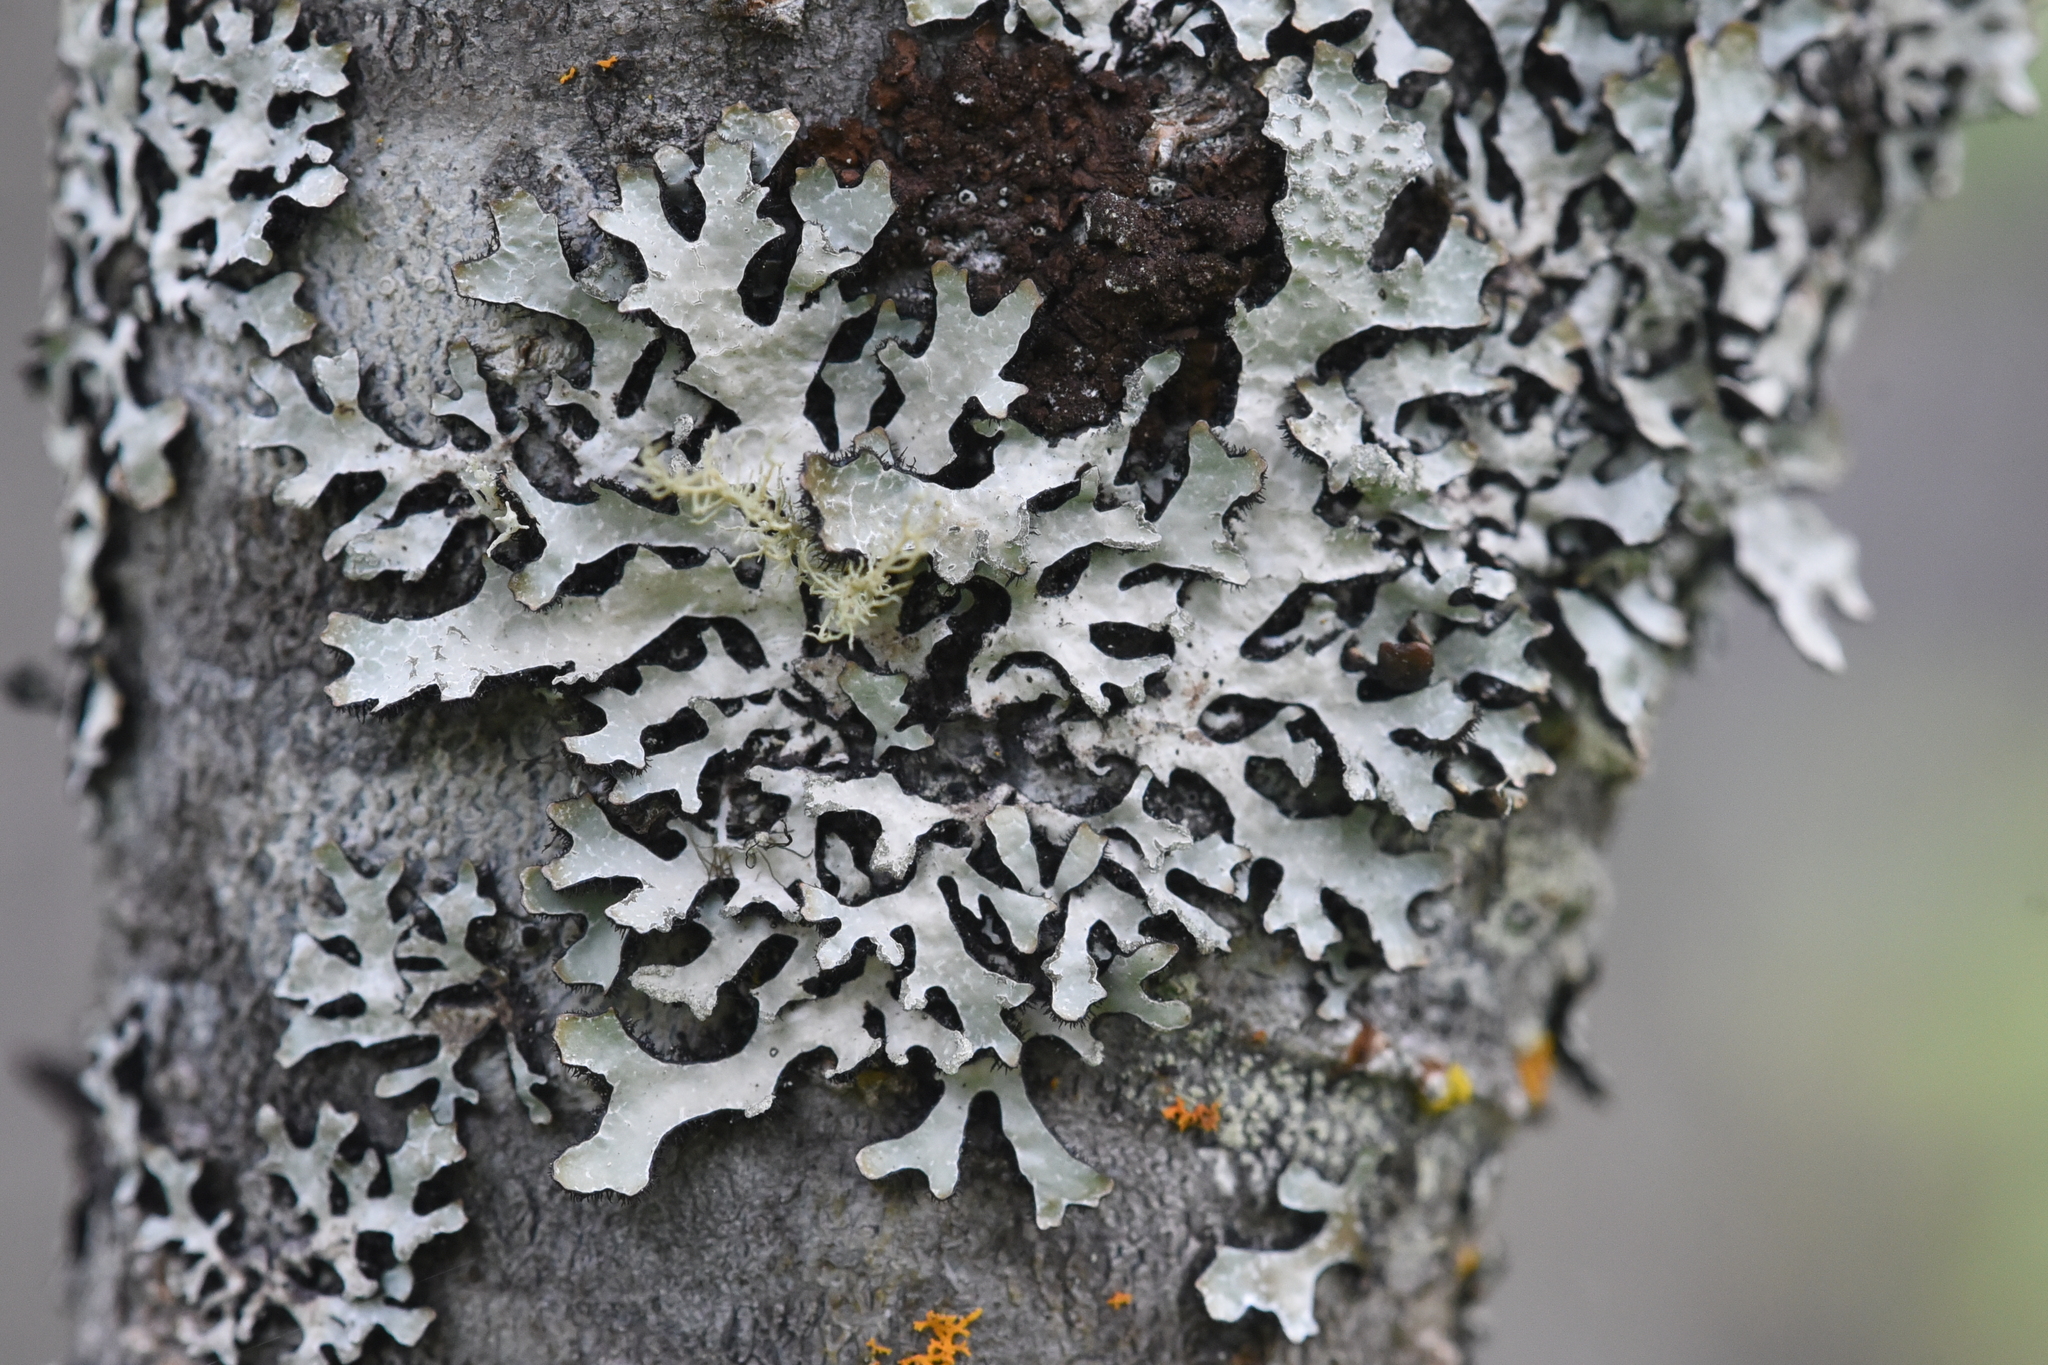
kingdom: Fungi
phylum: Ascomycota
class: Lecanoromycetes
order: Lecanorales
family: Parmeliaceae
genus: Parmelia
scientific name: Parmelia sulcata
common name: Netted shield lichen
